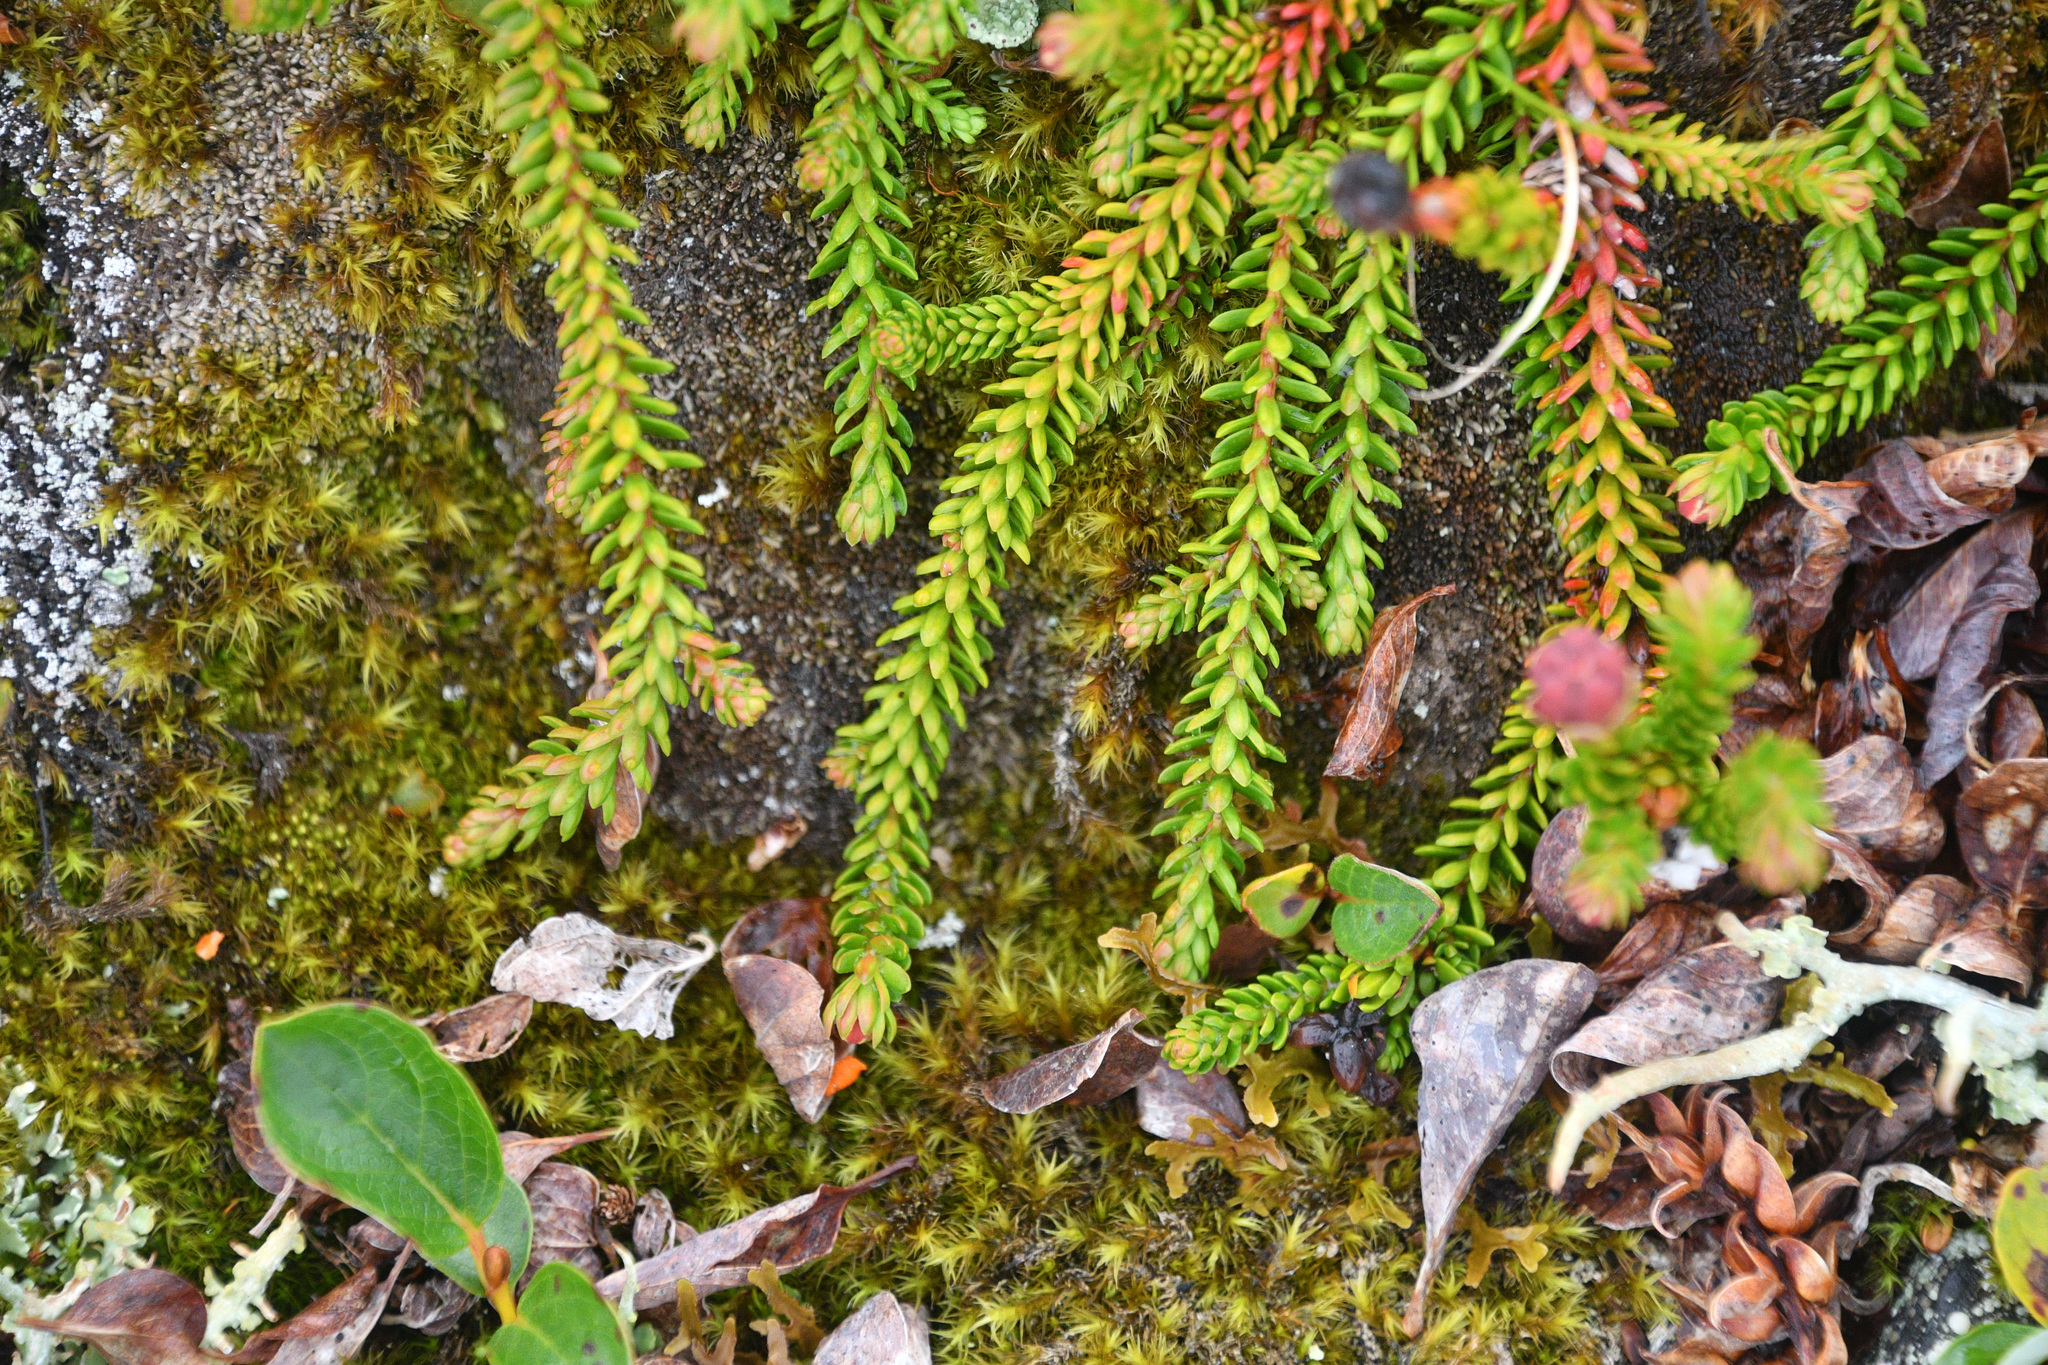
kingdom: Plantae
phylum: Tracheophyta
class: Magnoliopsida
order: Ericales
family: Ericaceae
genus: Harrimanella
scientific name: Harrimanella stelleriana
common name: Alaska bell heather
